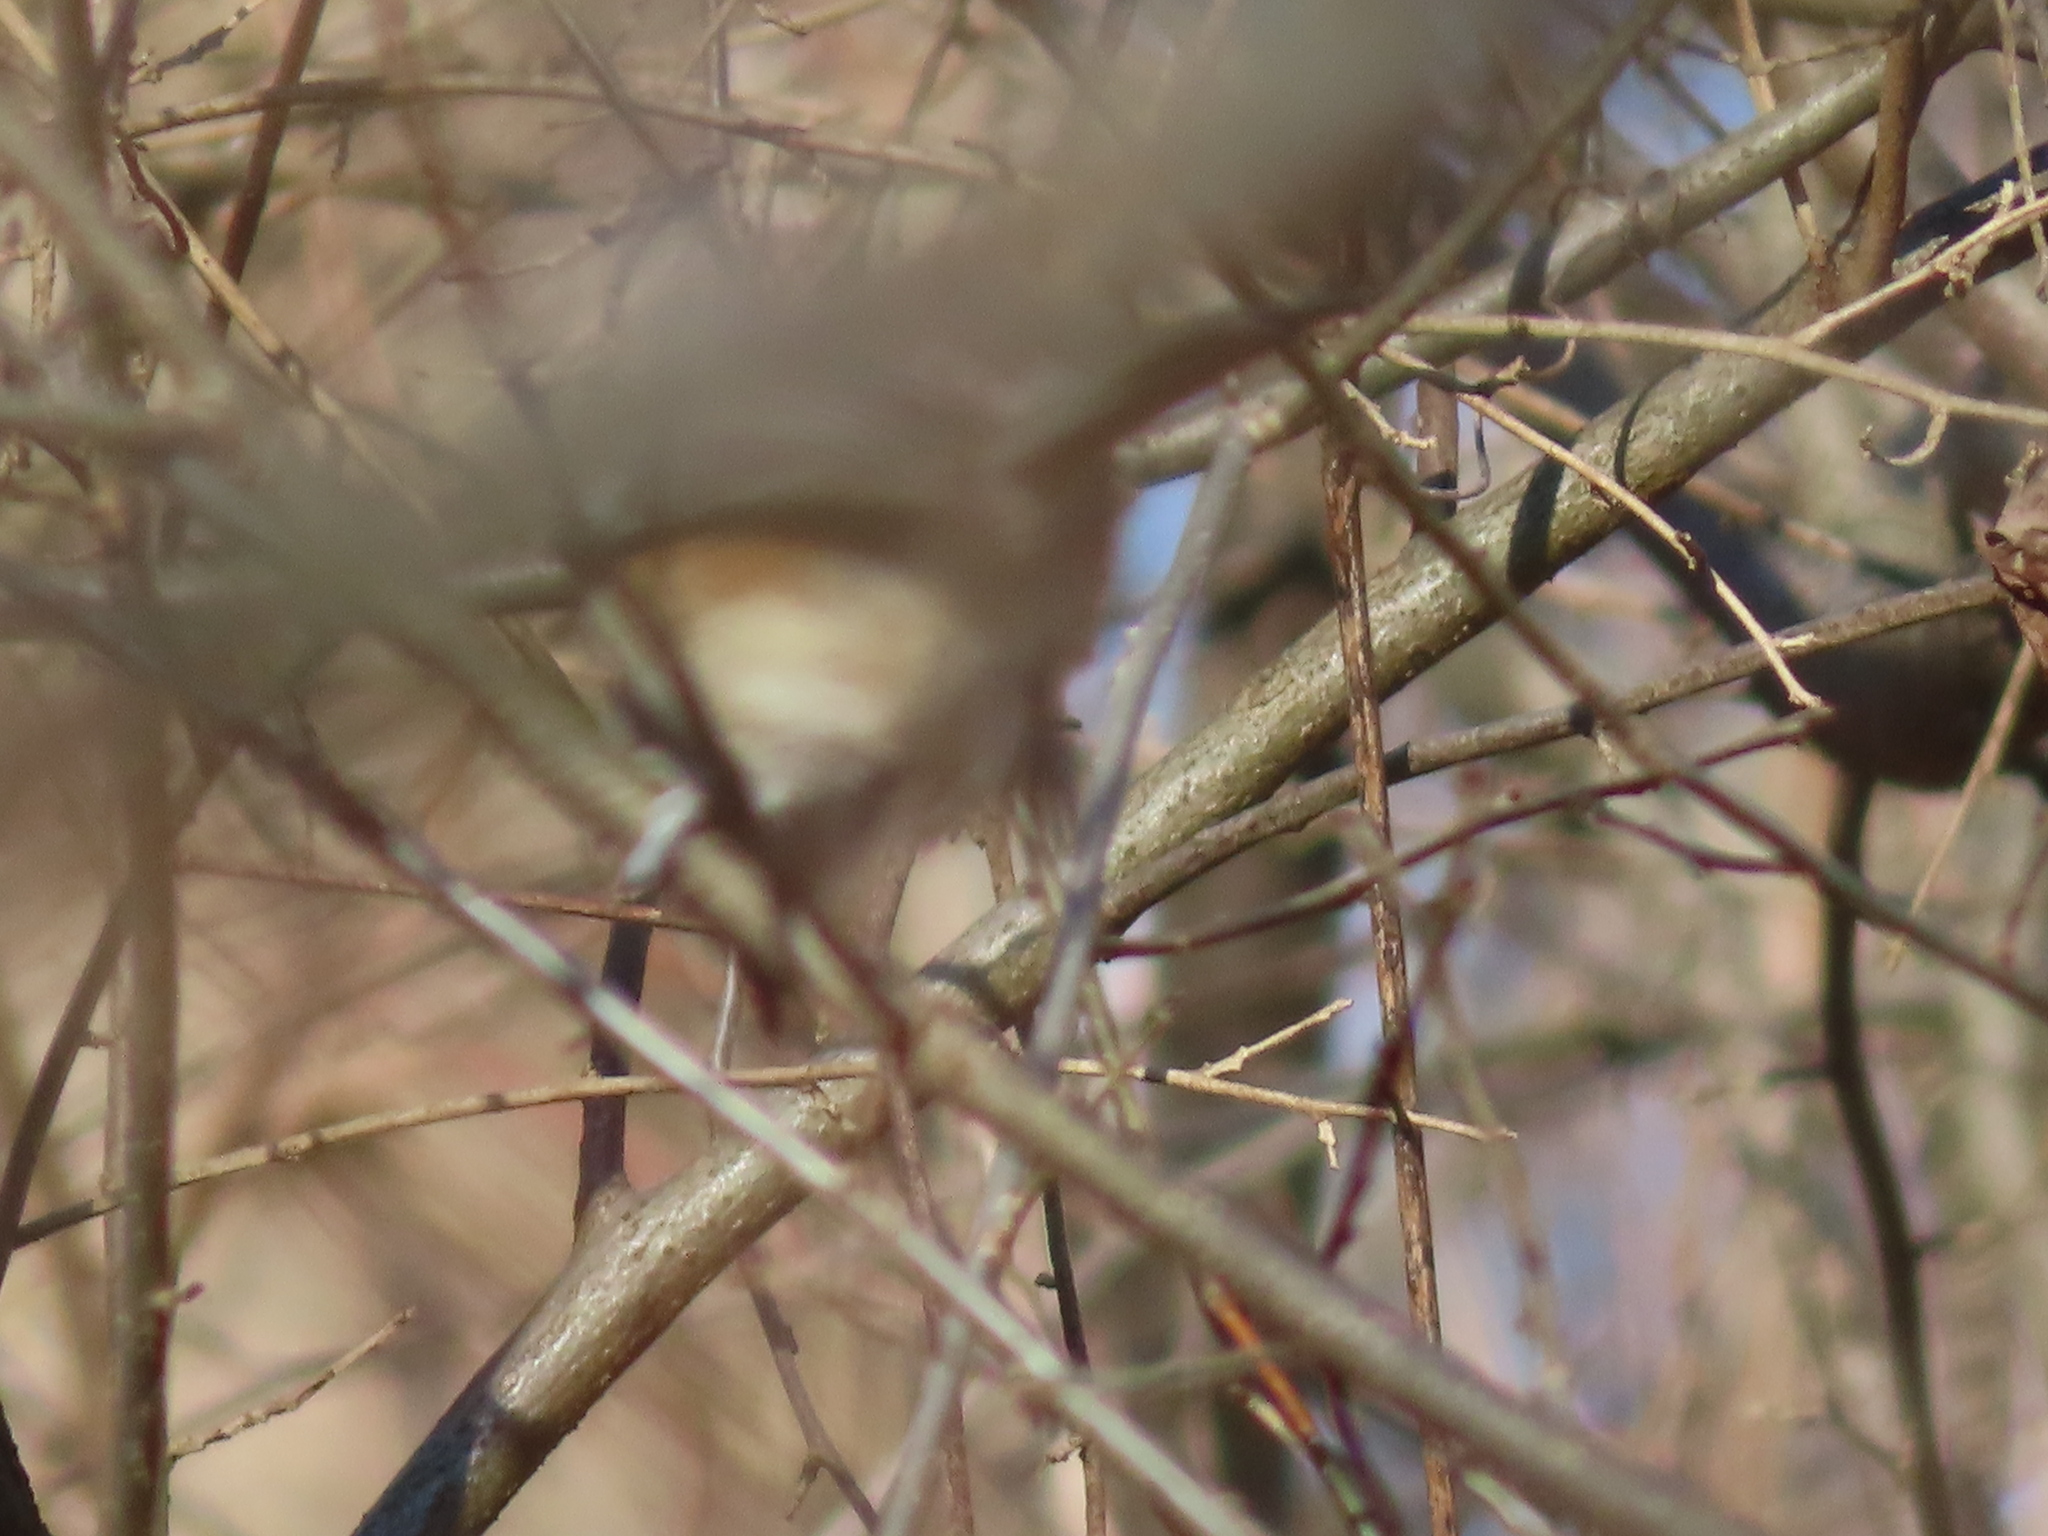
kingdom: Animalia
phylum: Chordata
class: Aves
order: Passeriformes
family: Paridae
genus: Baeolophus
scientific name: Baeolophus bicolor
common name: Tufted titmouse
